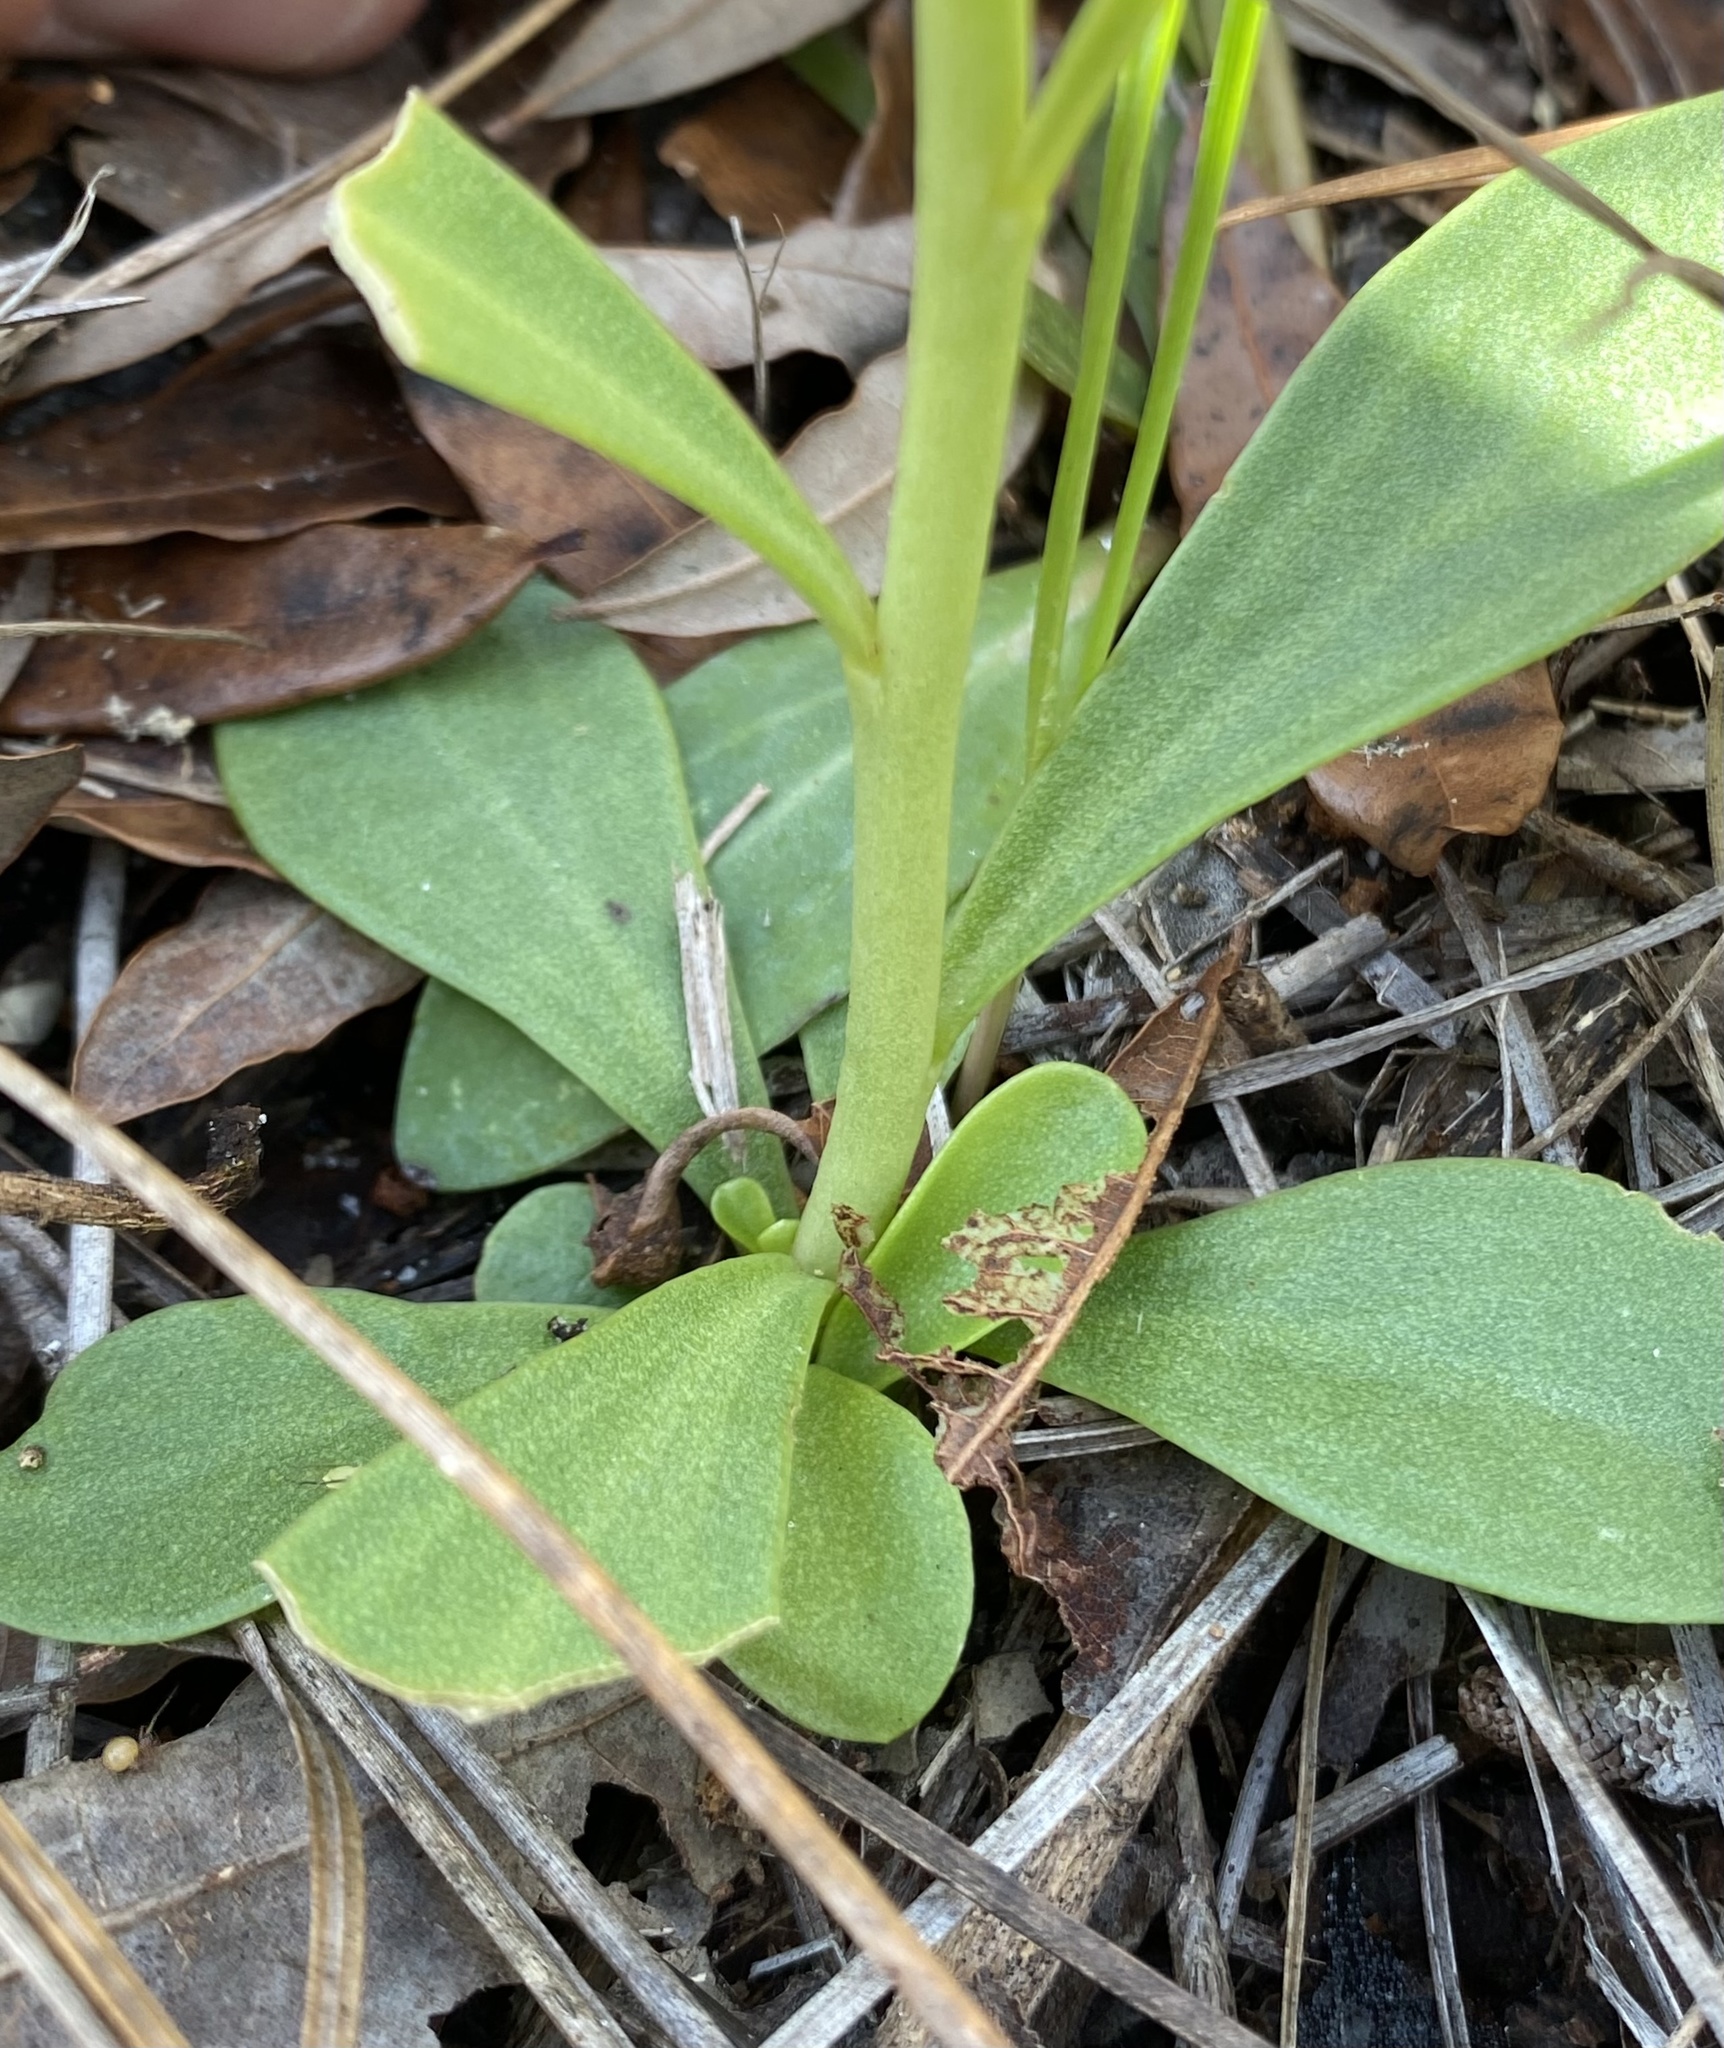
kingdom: Plantae
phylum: Tracheophyta
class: Magnoliopsida
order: Fabales
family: Polygalaceae
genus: Polygala
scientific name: Polygala lutea
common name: Orange milkwort
